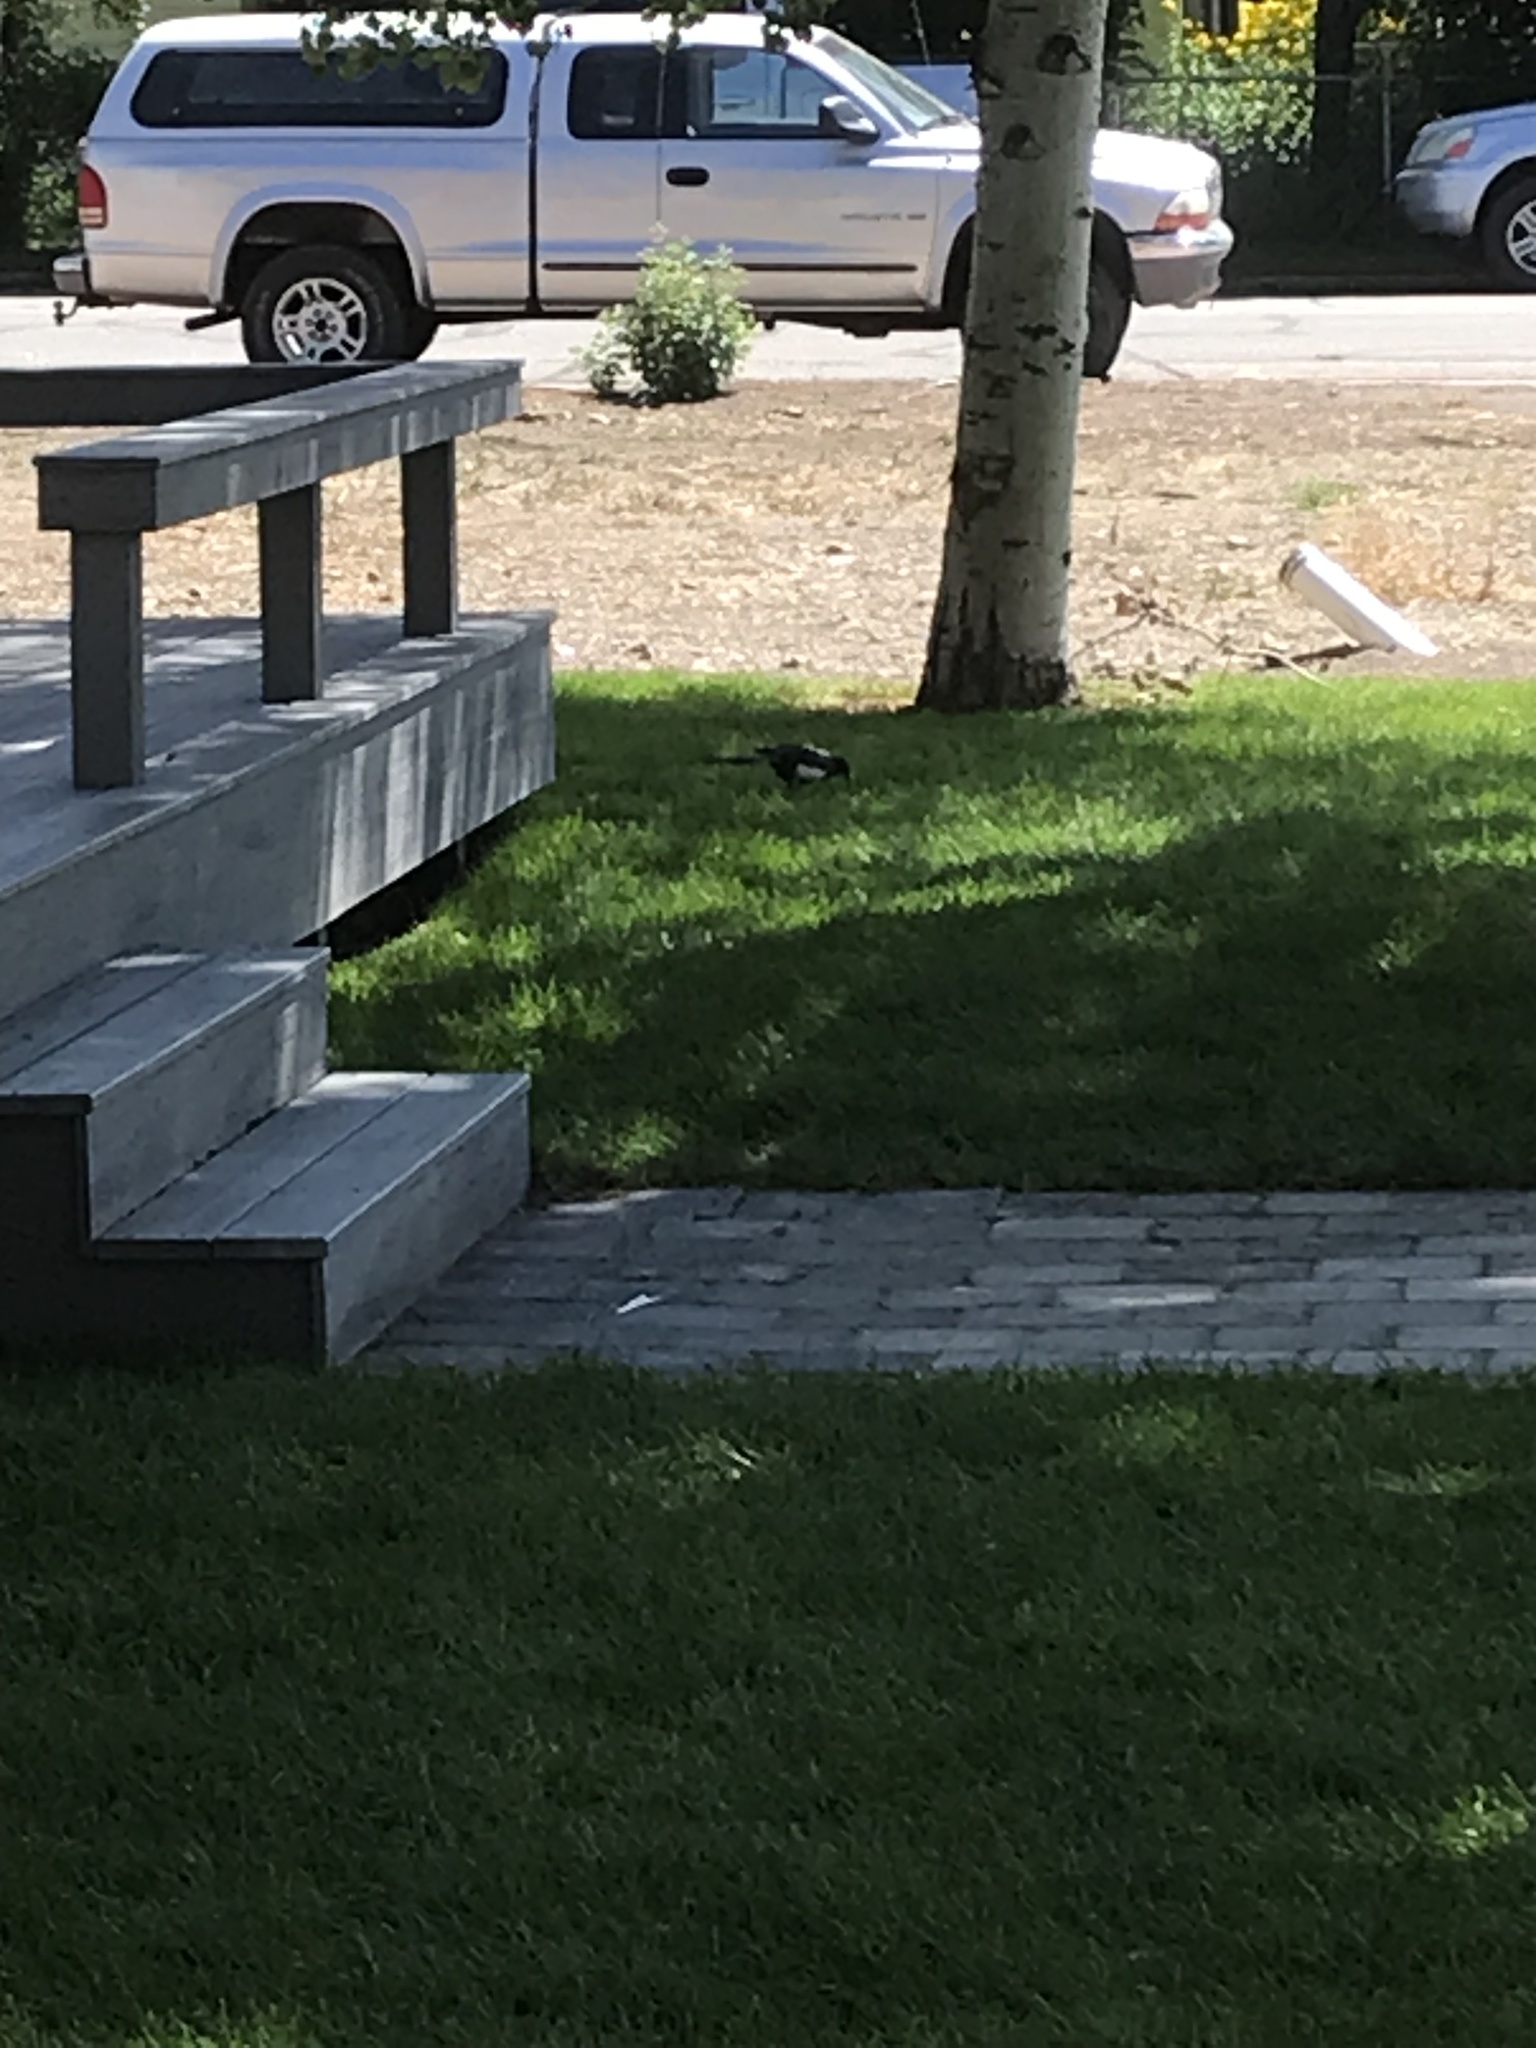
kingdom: Animalia
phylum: Chordata
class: Aves
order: Passeriformes
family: Corvidae
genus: Pica
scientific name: Pica hudsonia
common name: Black-billed magpie
